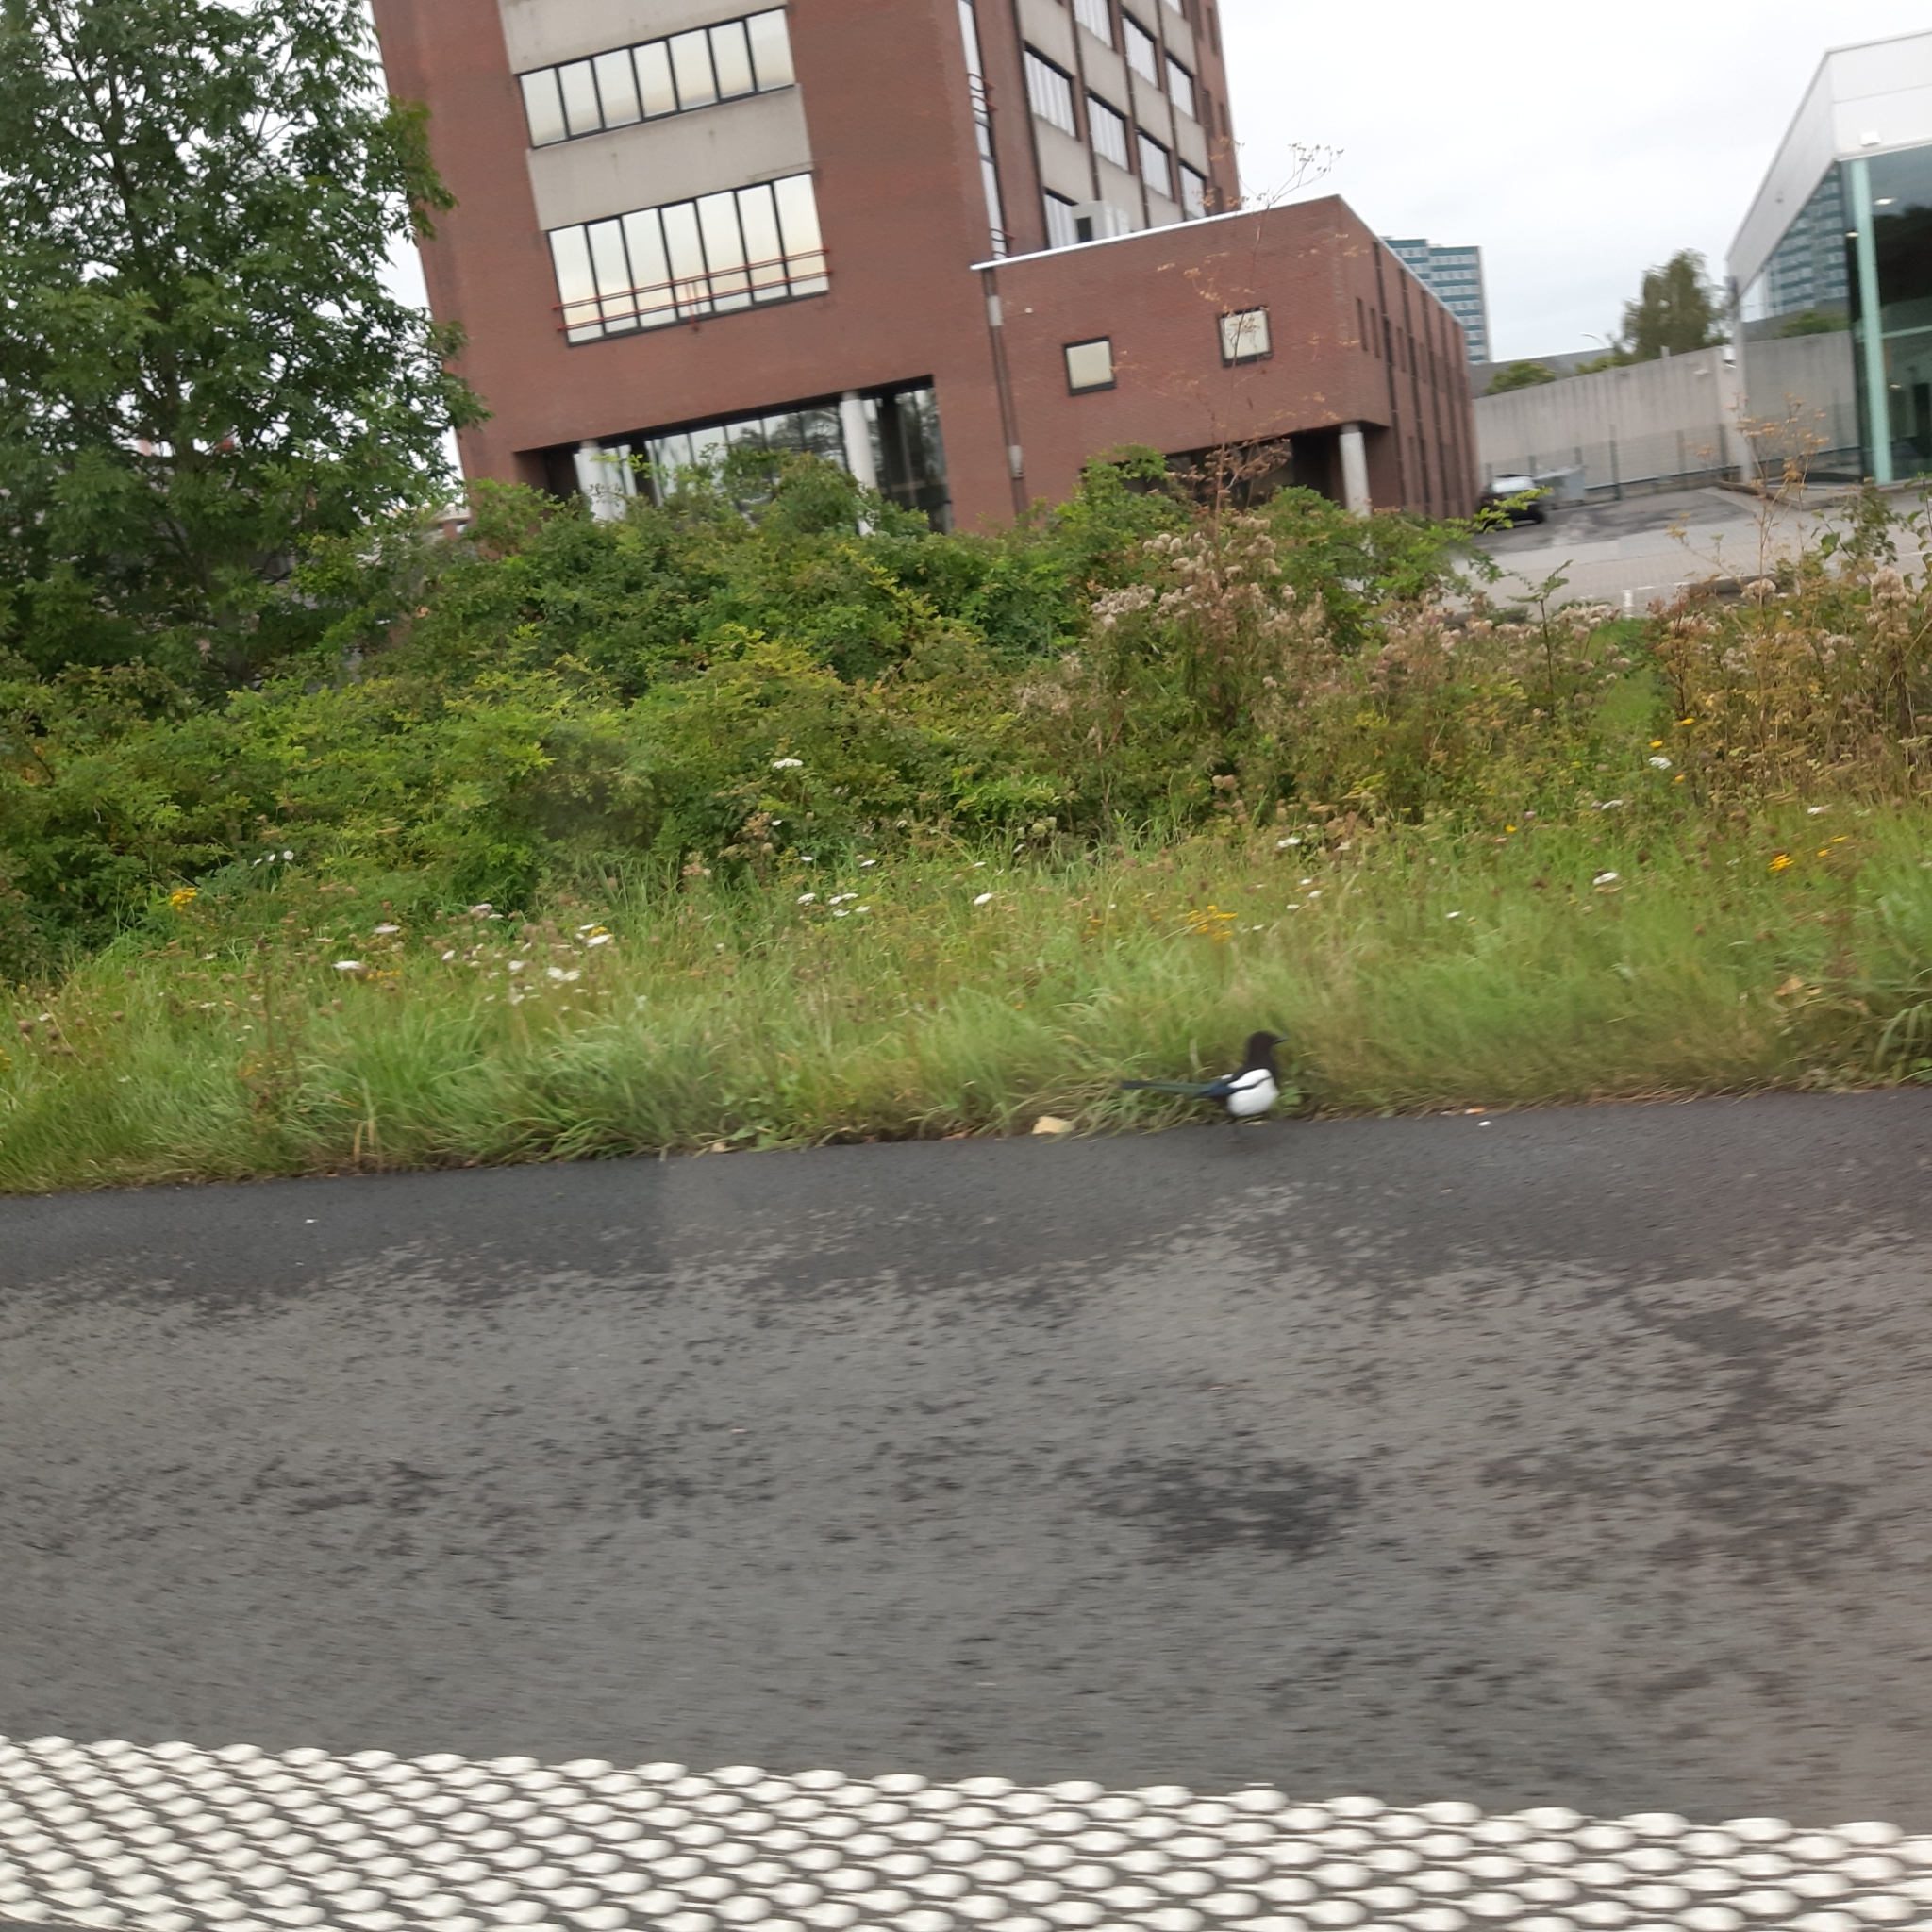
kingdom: Animalia
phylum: Chordata
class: Aves
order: Passeriformes
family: Corvidae
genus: Pica
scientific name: Pica pica
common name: Eurasian magpie
